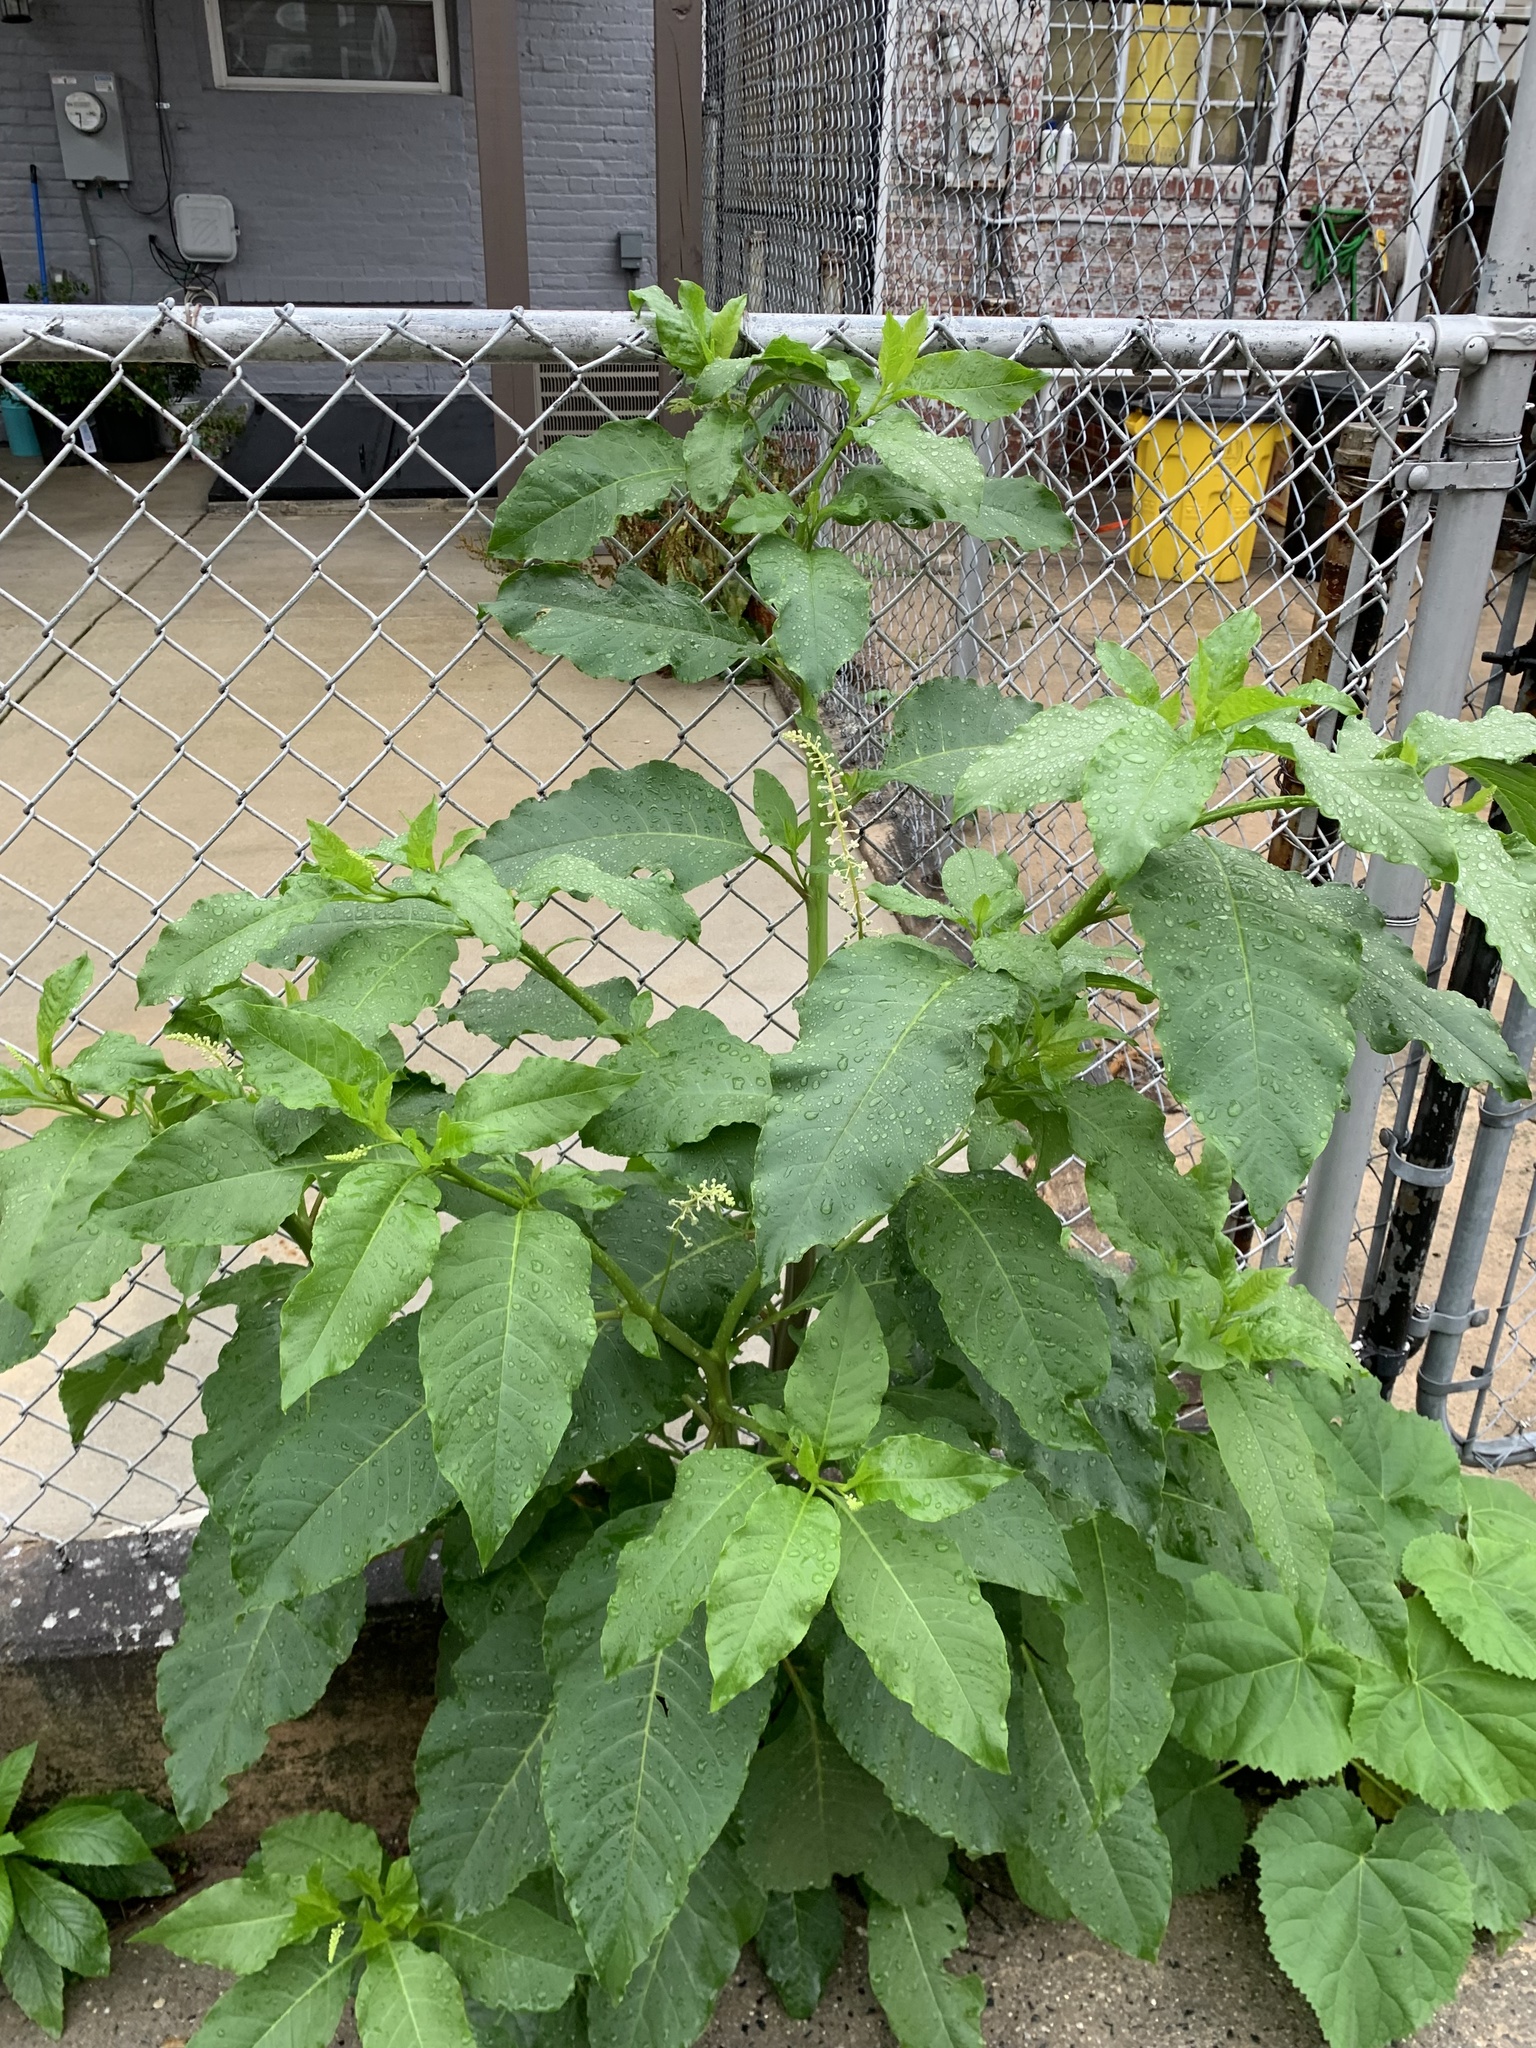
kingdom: Plantae
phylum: Tracheophyta
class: Magnoliopsida
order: Caryophyllales
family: Phytolaccaceae
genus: Phytolacca
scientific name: Phytolacca americana
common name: American pokeweed
